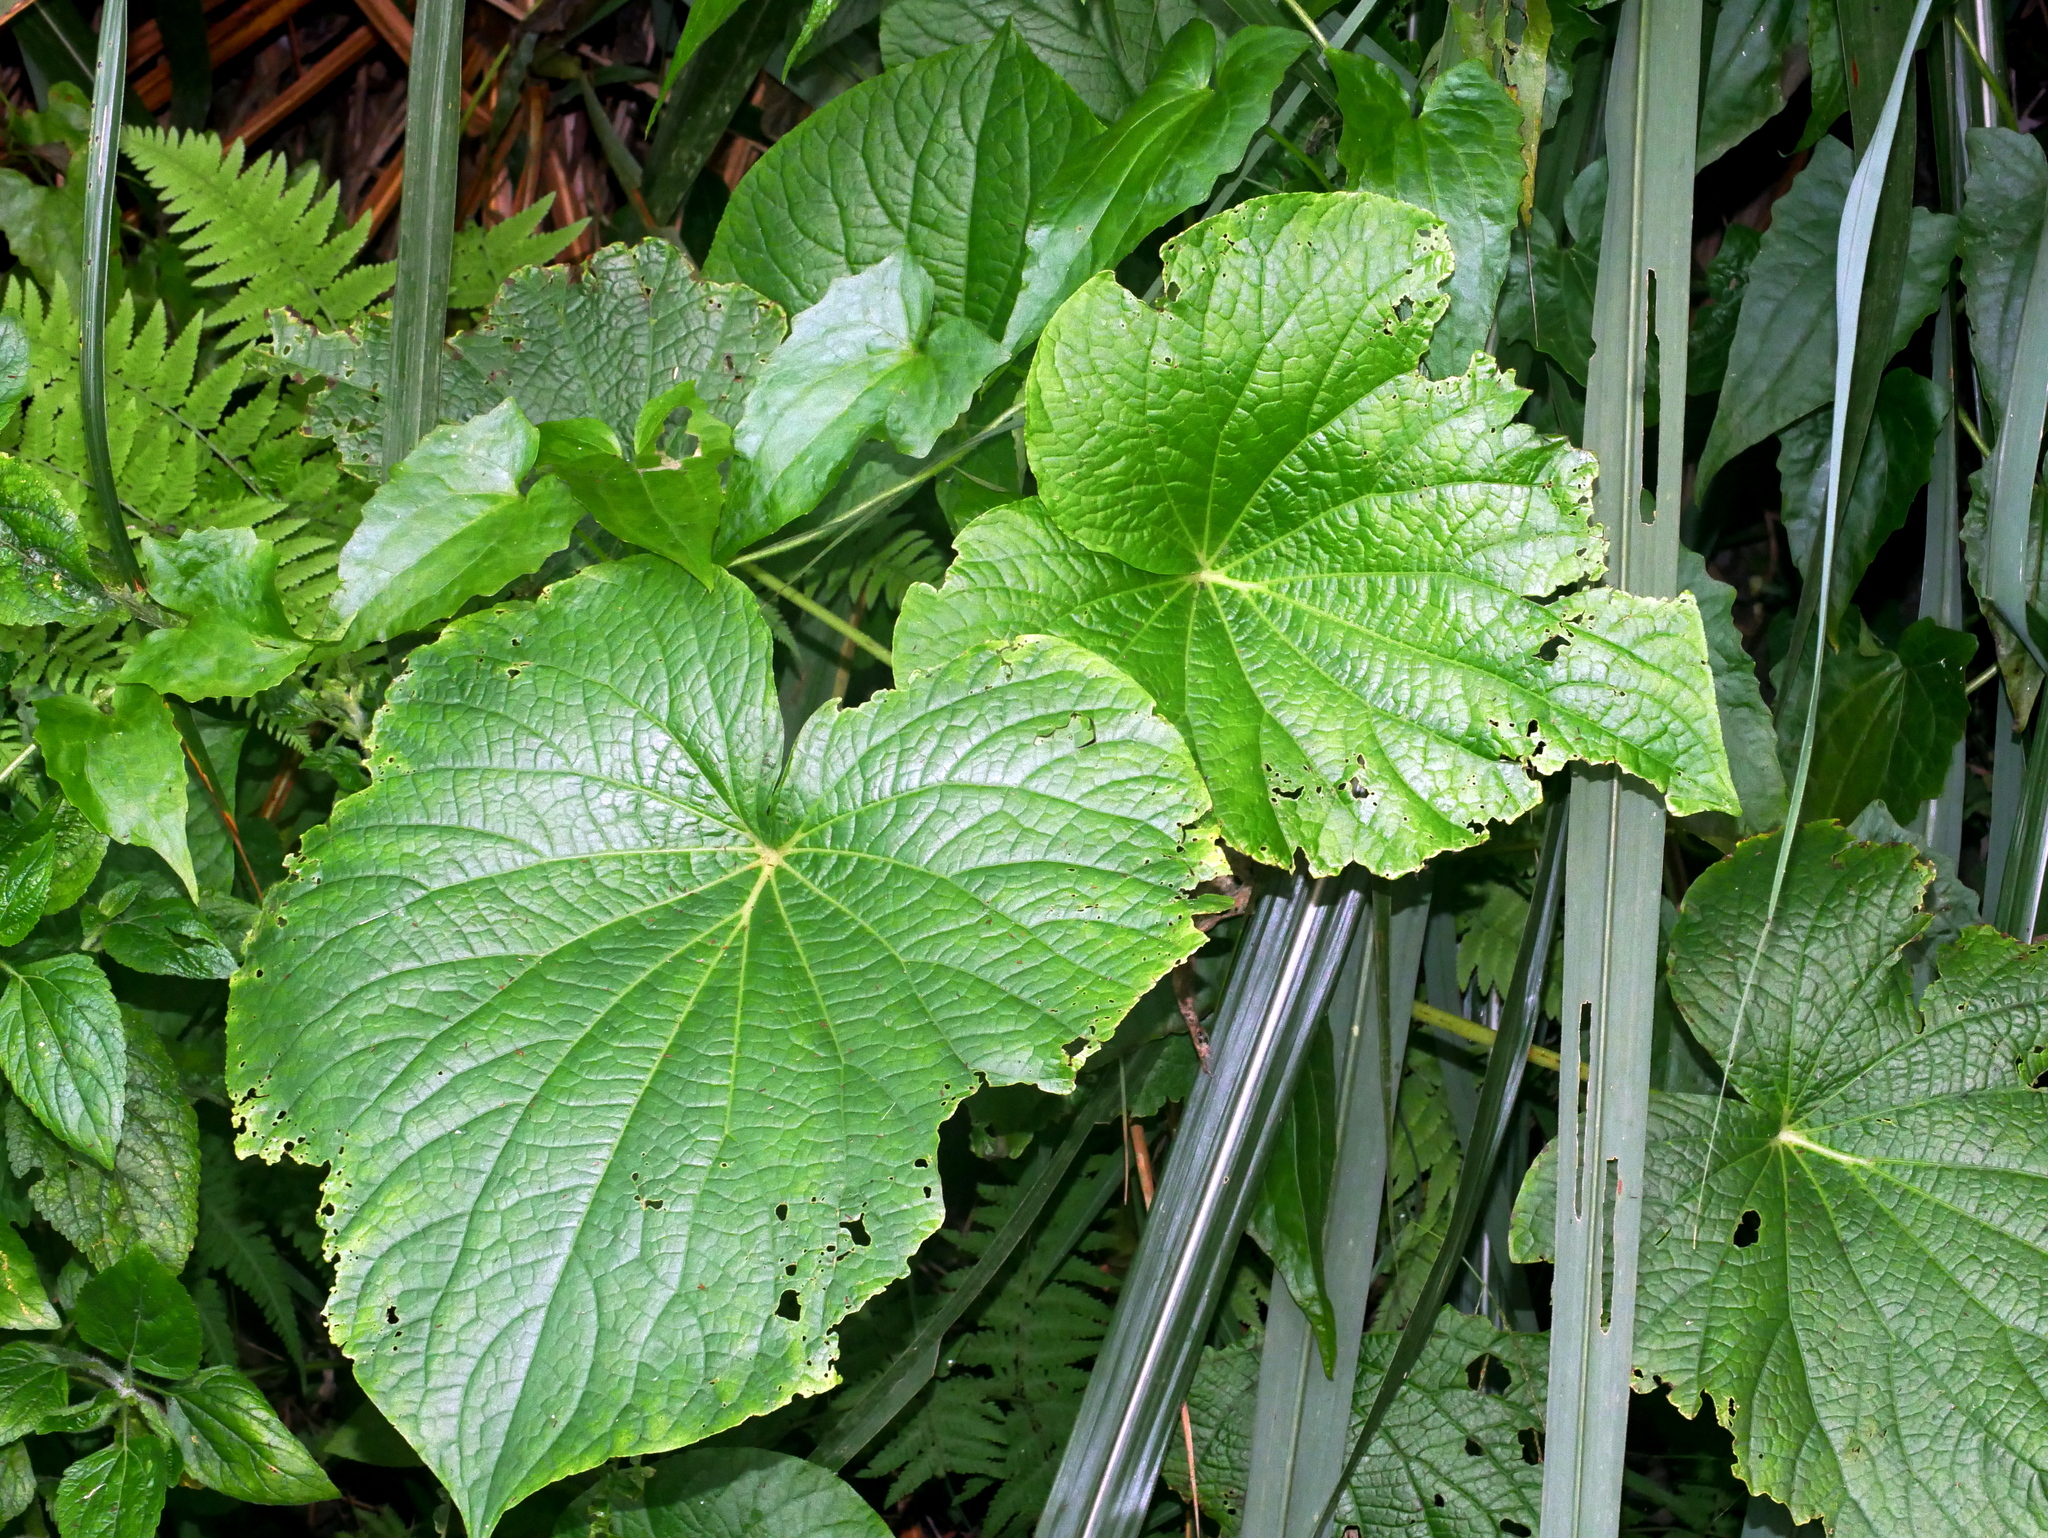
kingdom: Plantae
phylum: Tracheophyta
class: Magnoliopsida
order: Piperales
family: Piperaceae
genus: Piper
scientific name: Piper umbellatum
